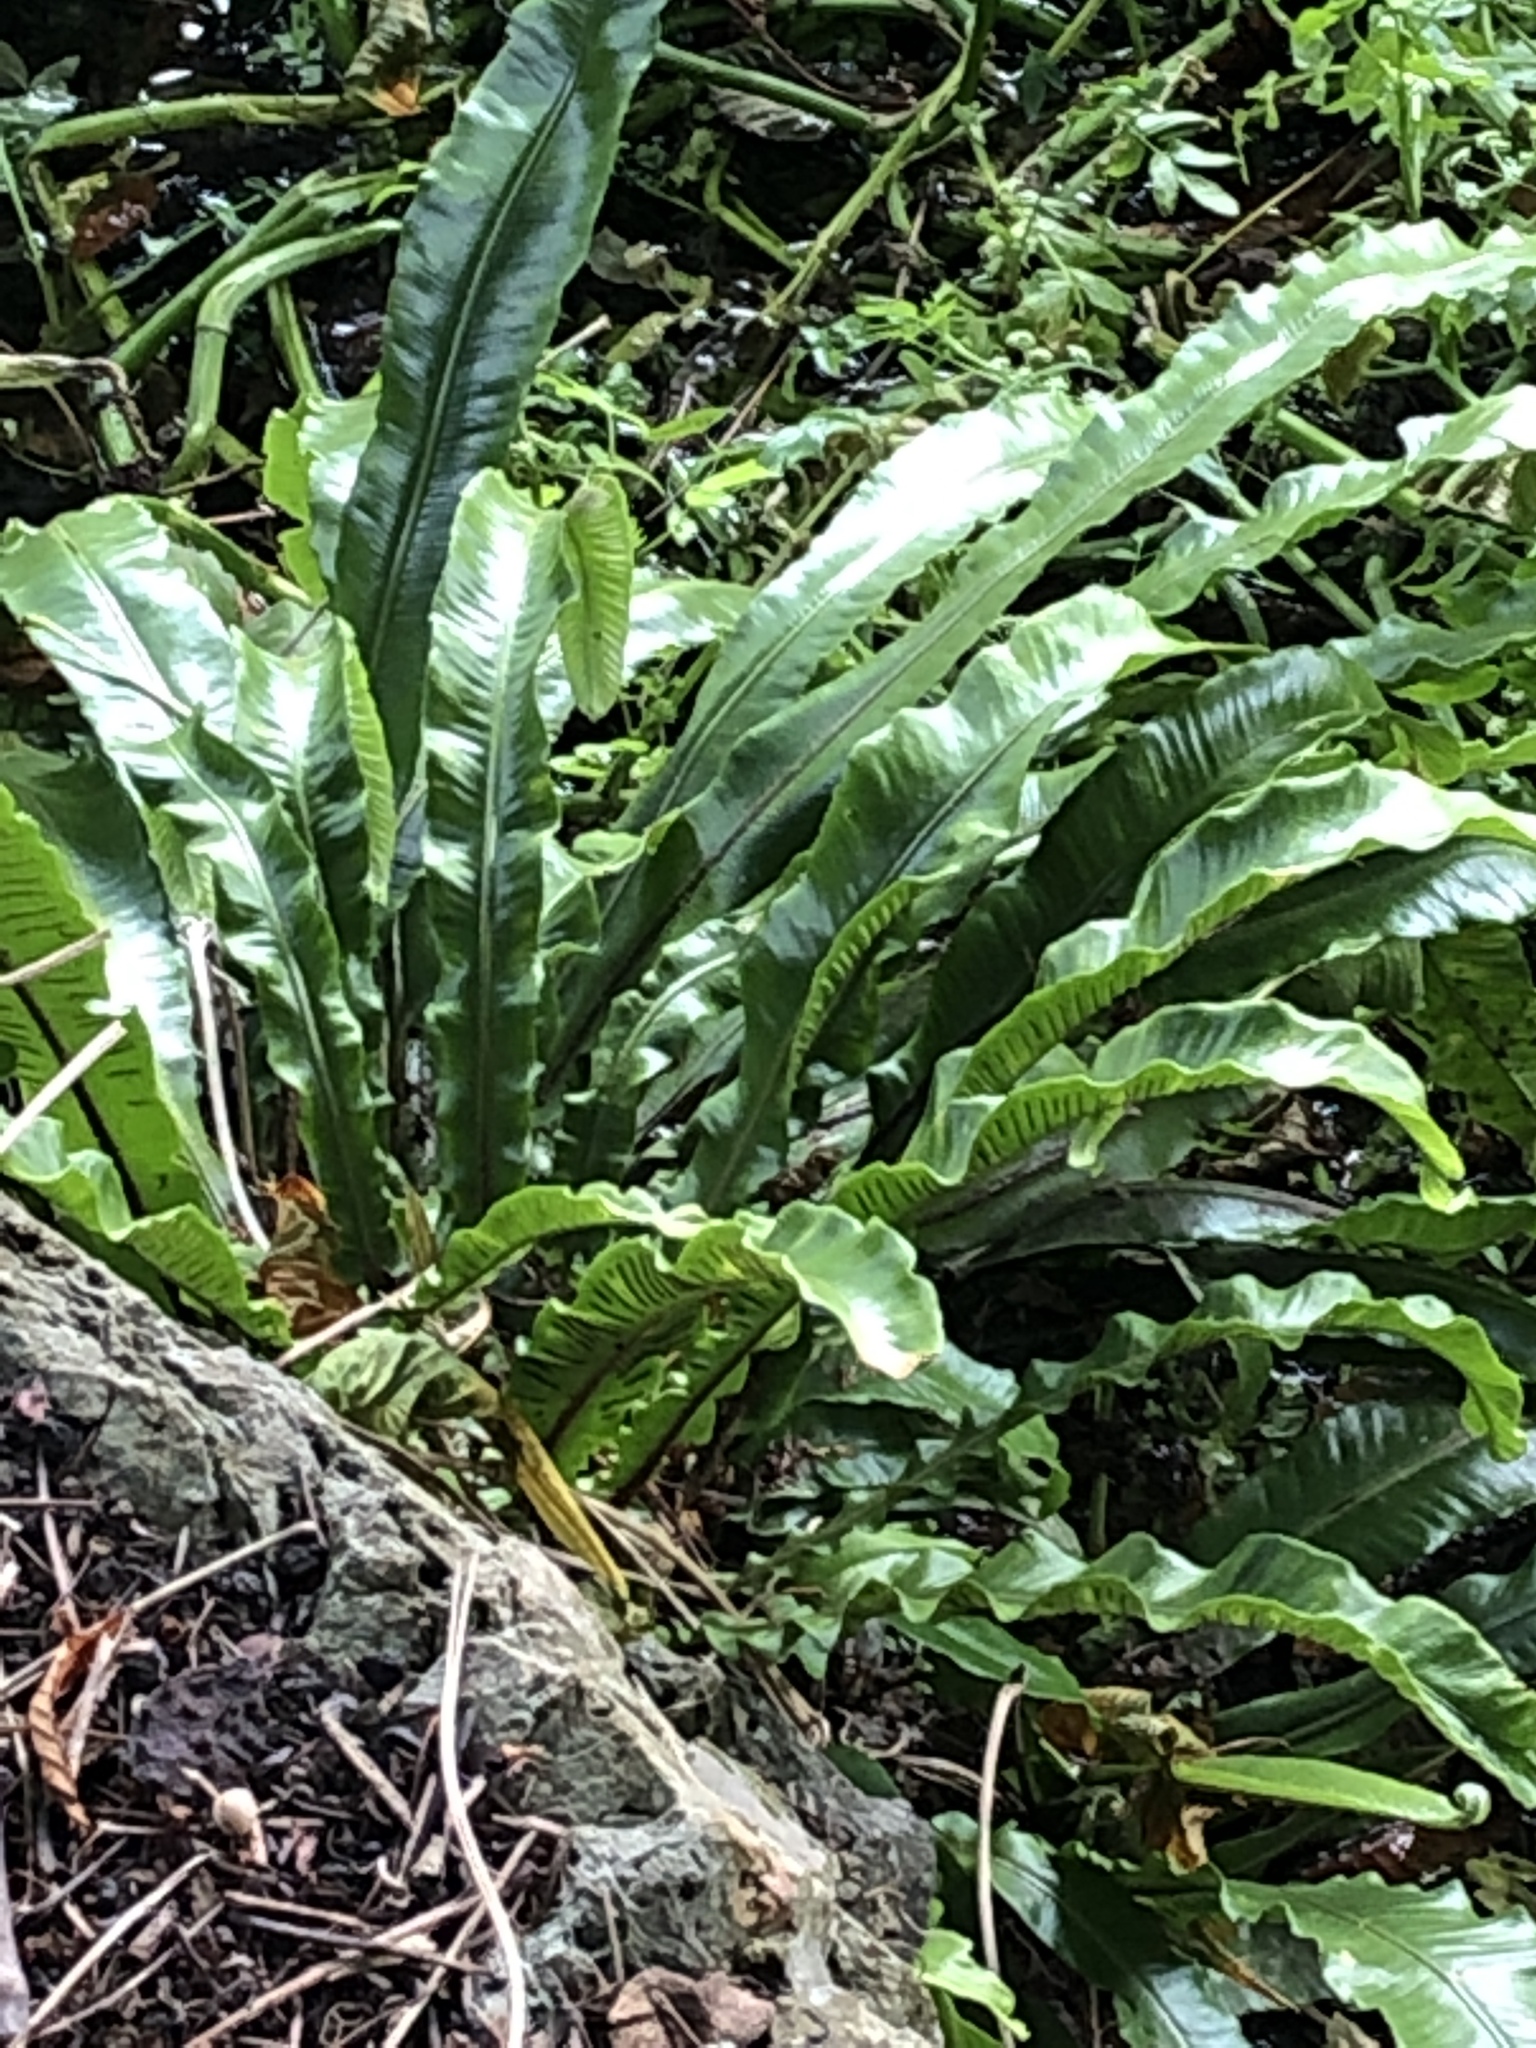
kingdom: Plantae
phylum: Tracheophyta
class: Polypodiopsida
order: Polypodiales
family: Aspleniaceae
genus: Asplenium
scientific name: Asplenium scolopendrium
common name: Hart's-tongue fern
